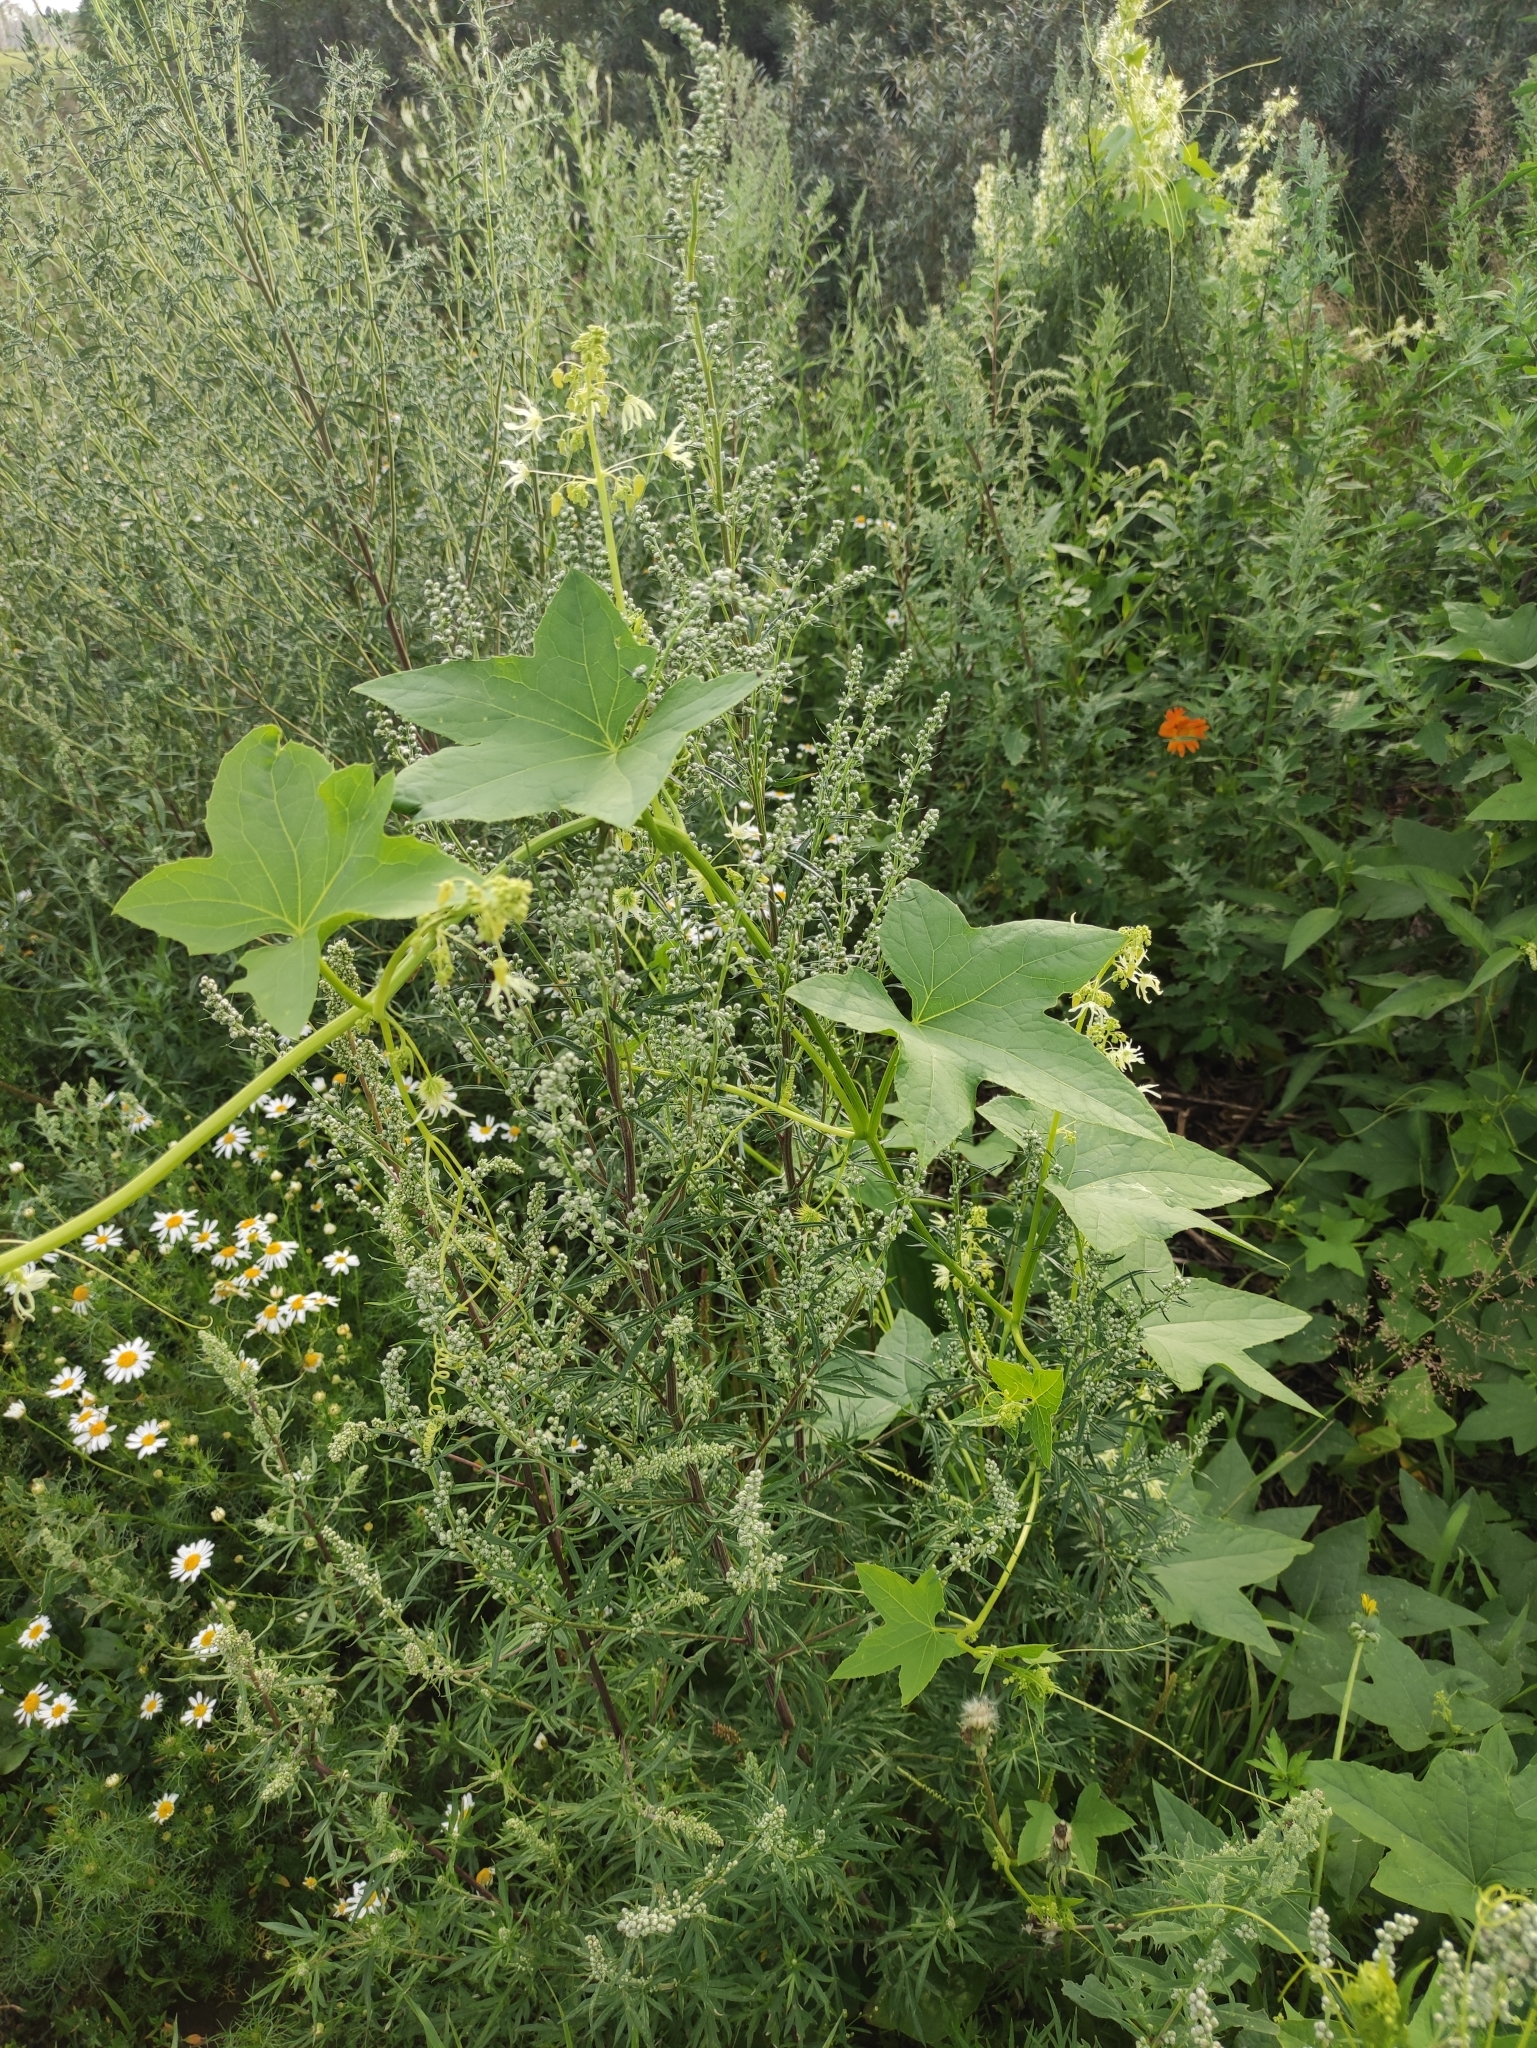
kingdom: Plantae
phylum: Tracheophyta
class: Magnoliopsida
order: Cucurbitales
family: Cucurbitaceae
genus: Echinocystis
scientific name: Echinocystis lobata
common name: Wild cucumber
